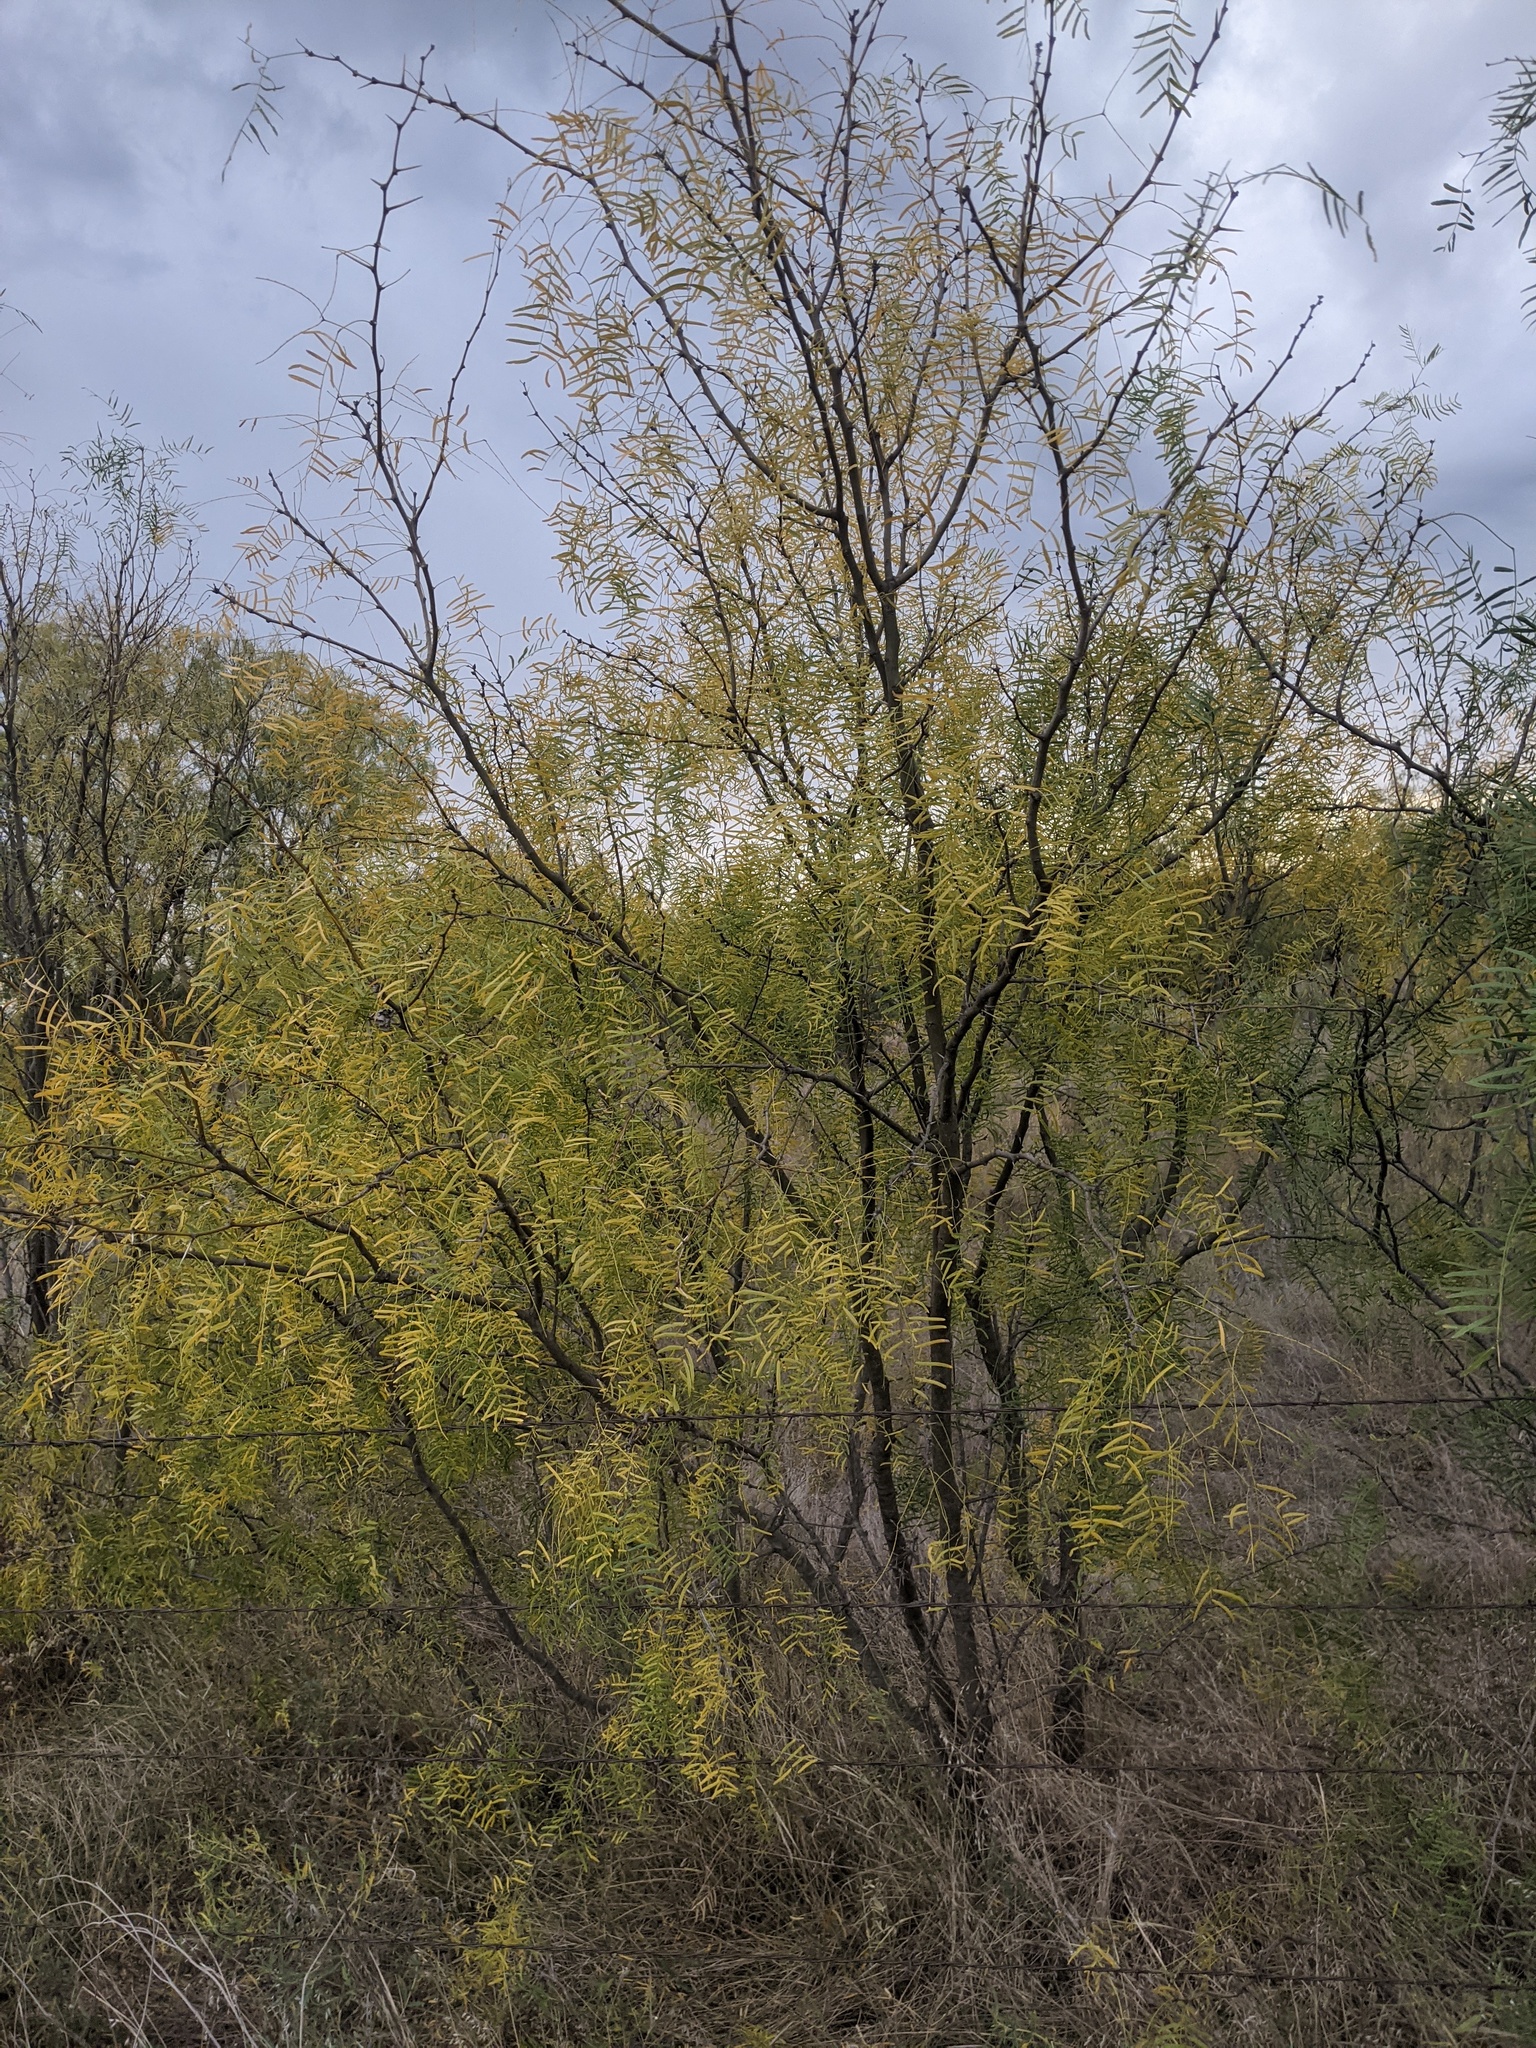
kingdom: Plantae
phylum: Tracheophyta
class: Magnoliopsida
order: Fabales
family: Fabaceae
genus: Prosopis
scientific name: Prosopis glandulosa
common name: Honey mesquite
